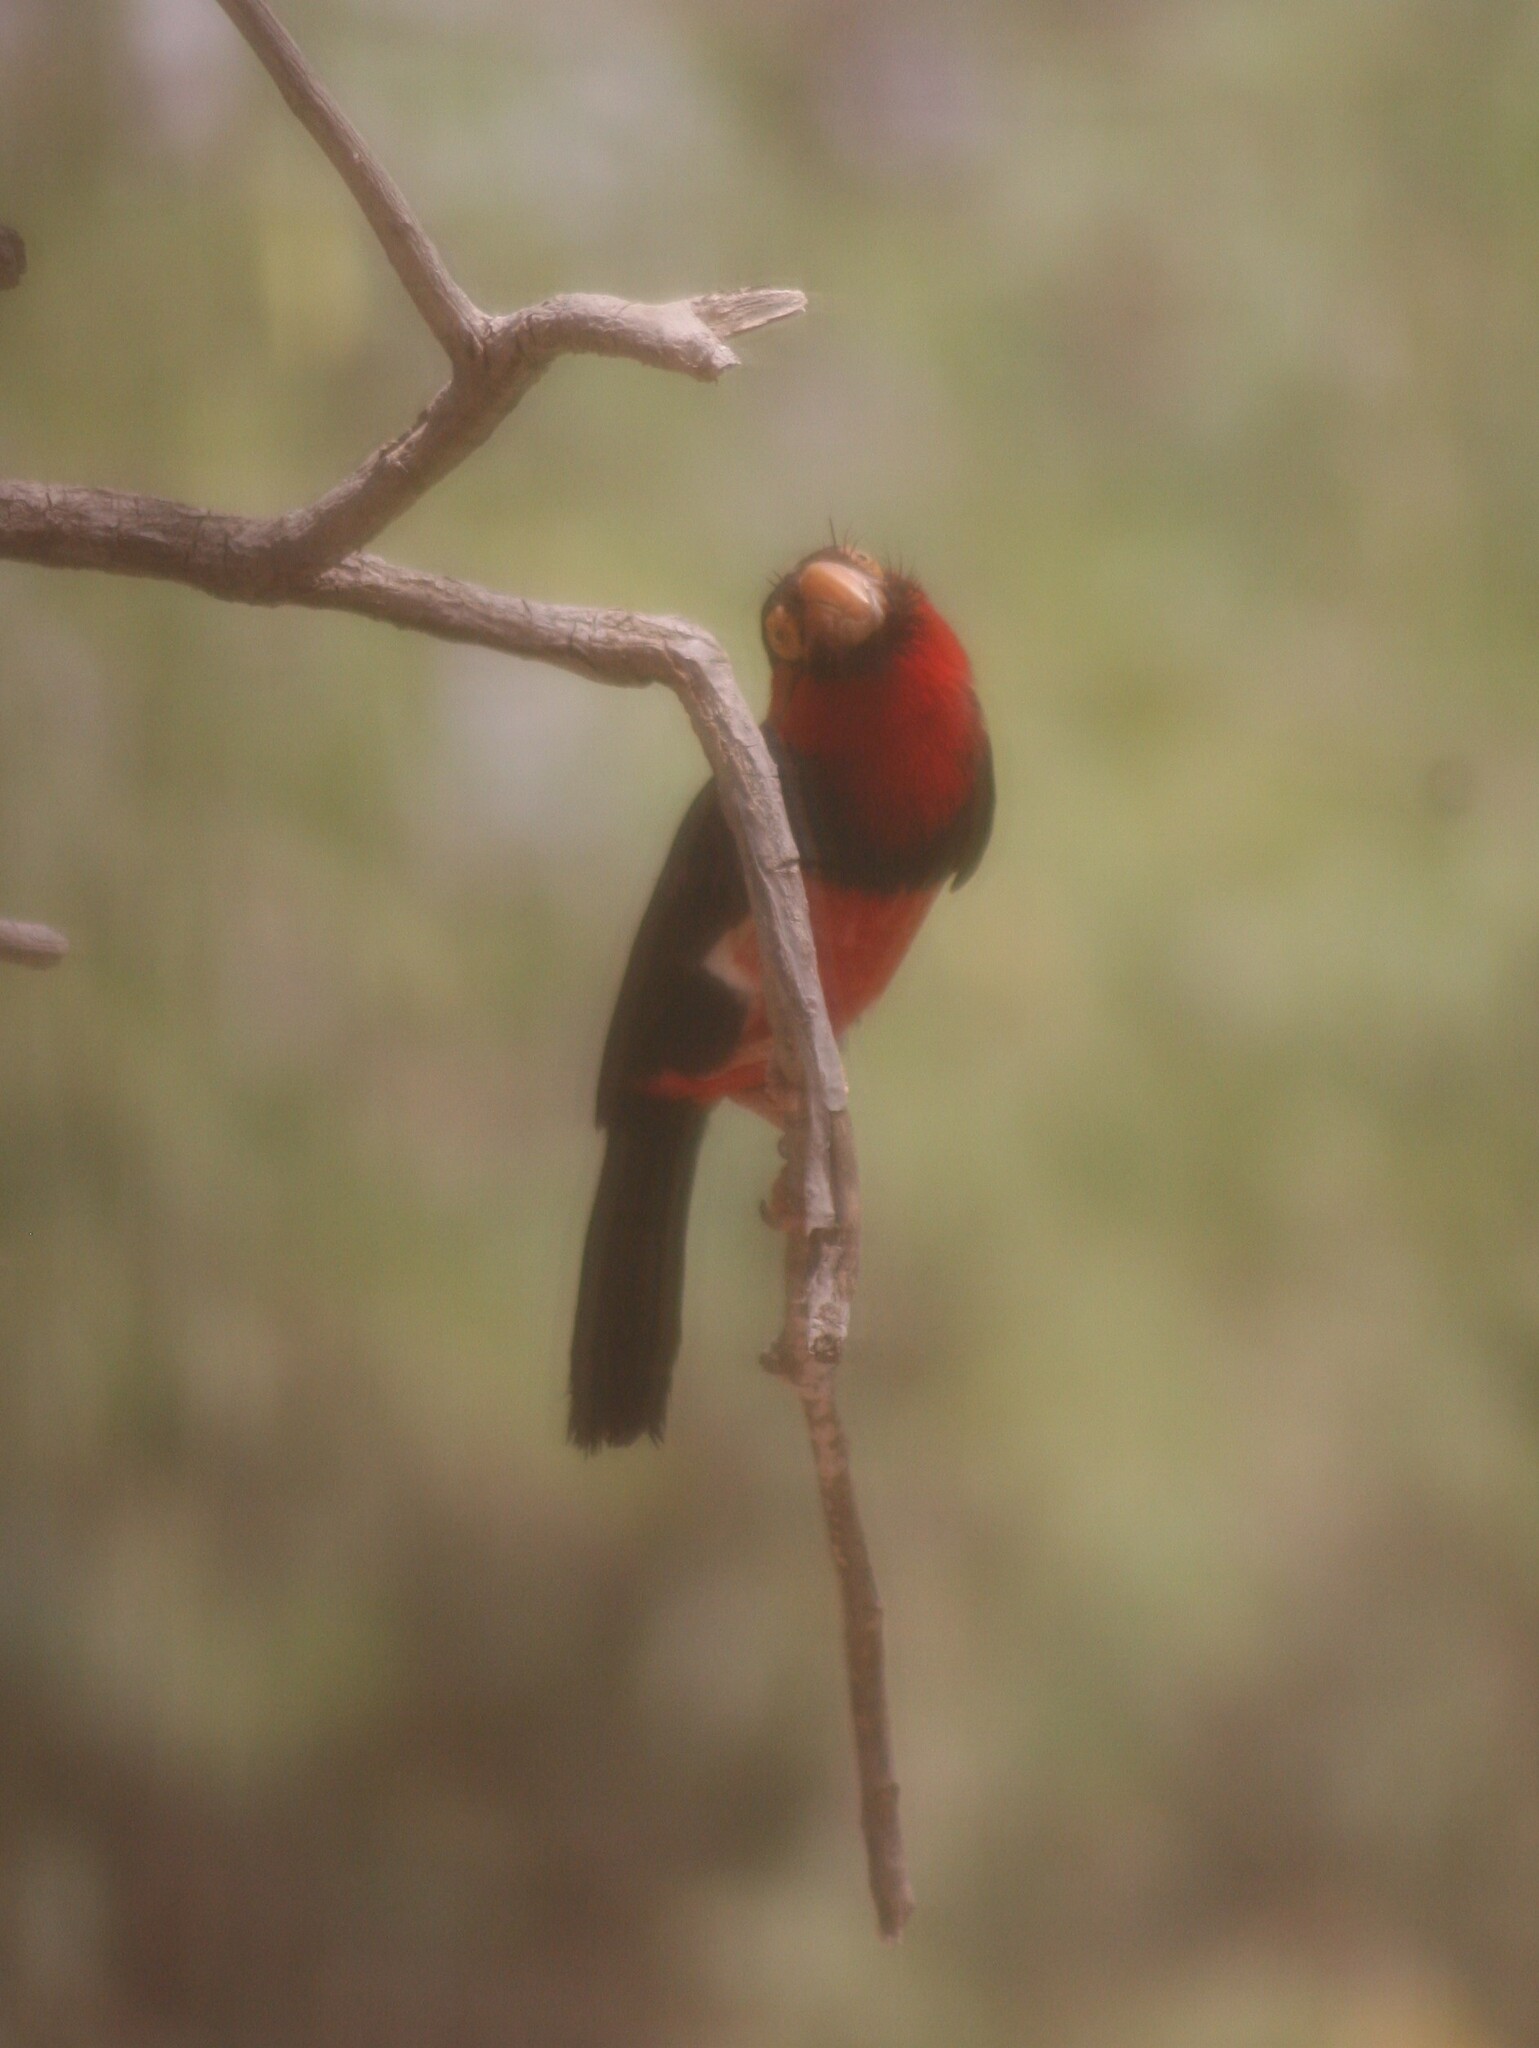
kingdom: Animalia
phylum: Chordata
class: Aves
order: Piciformes
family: Lybiidae
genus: Lybius
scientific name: Lybius dubius
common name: Bearded barbet
